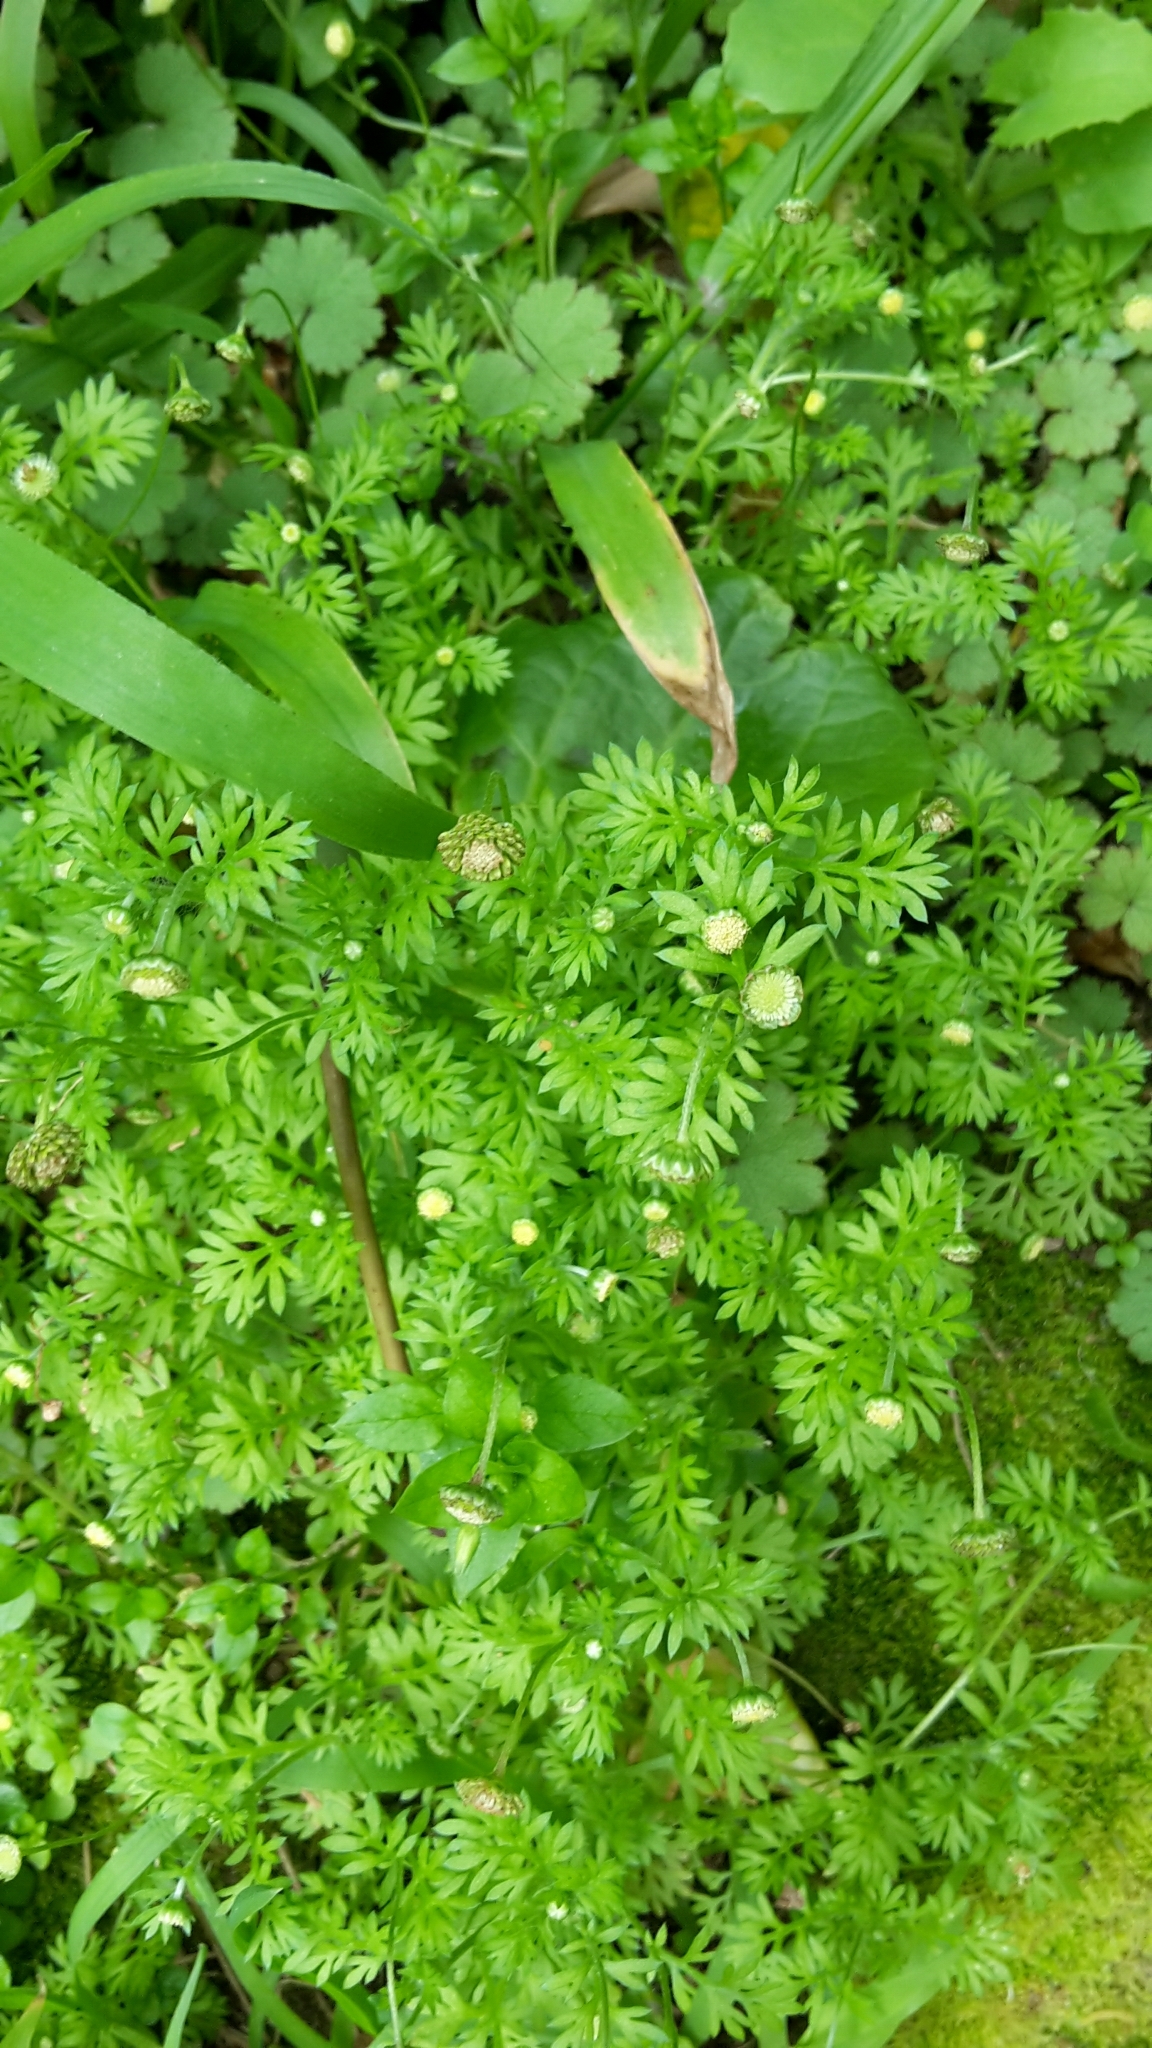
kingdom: Plantae
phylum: Tracheophyta
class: Magnoliopsida
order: Asterales
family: Asteraceae
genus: Cotula
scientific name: Cotula australis
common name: Australian waterbuttons
